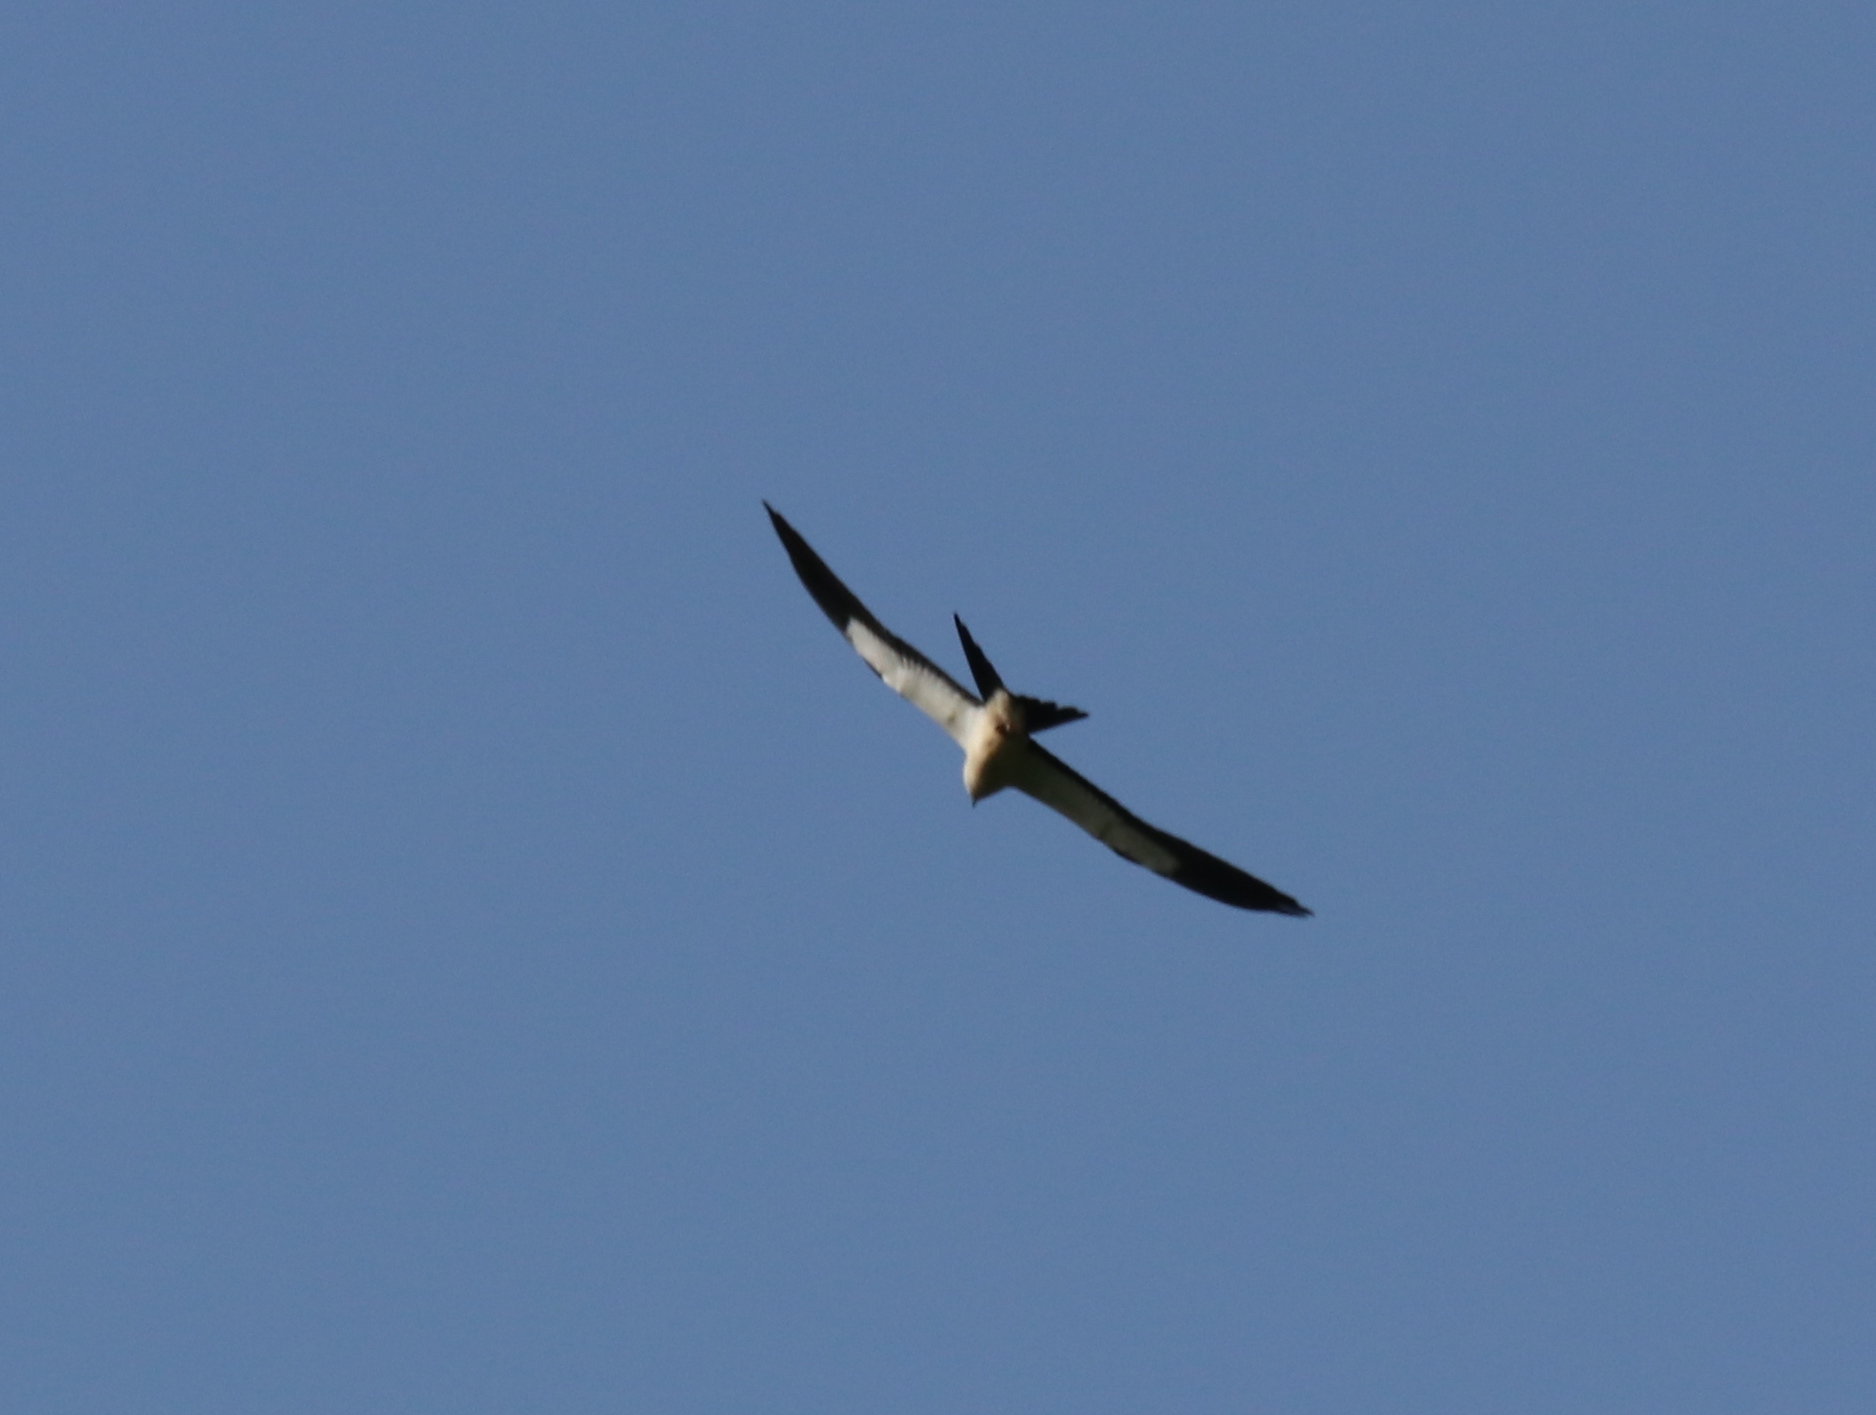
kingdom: Animalia
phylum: Chordata
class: Aves
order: Accipitriformes
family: Accipitridae
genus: Elanoides
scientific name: Elanoides forficatus
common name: Swallow-tailed kite
